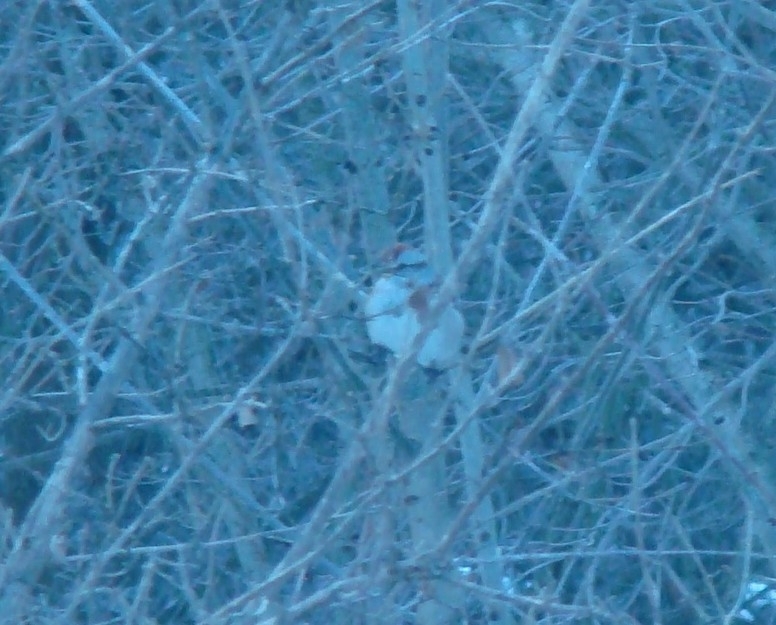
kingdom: Animalia
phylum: Chordata
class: Aves
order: Passeriformes
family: Passerellidae
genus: Spizelloides
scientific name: Spizelloides arborea
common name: American tree sparrow
